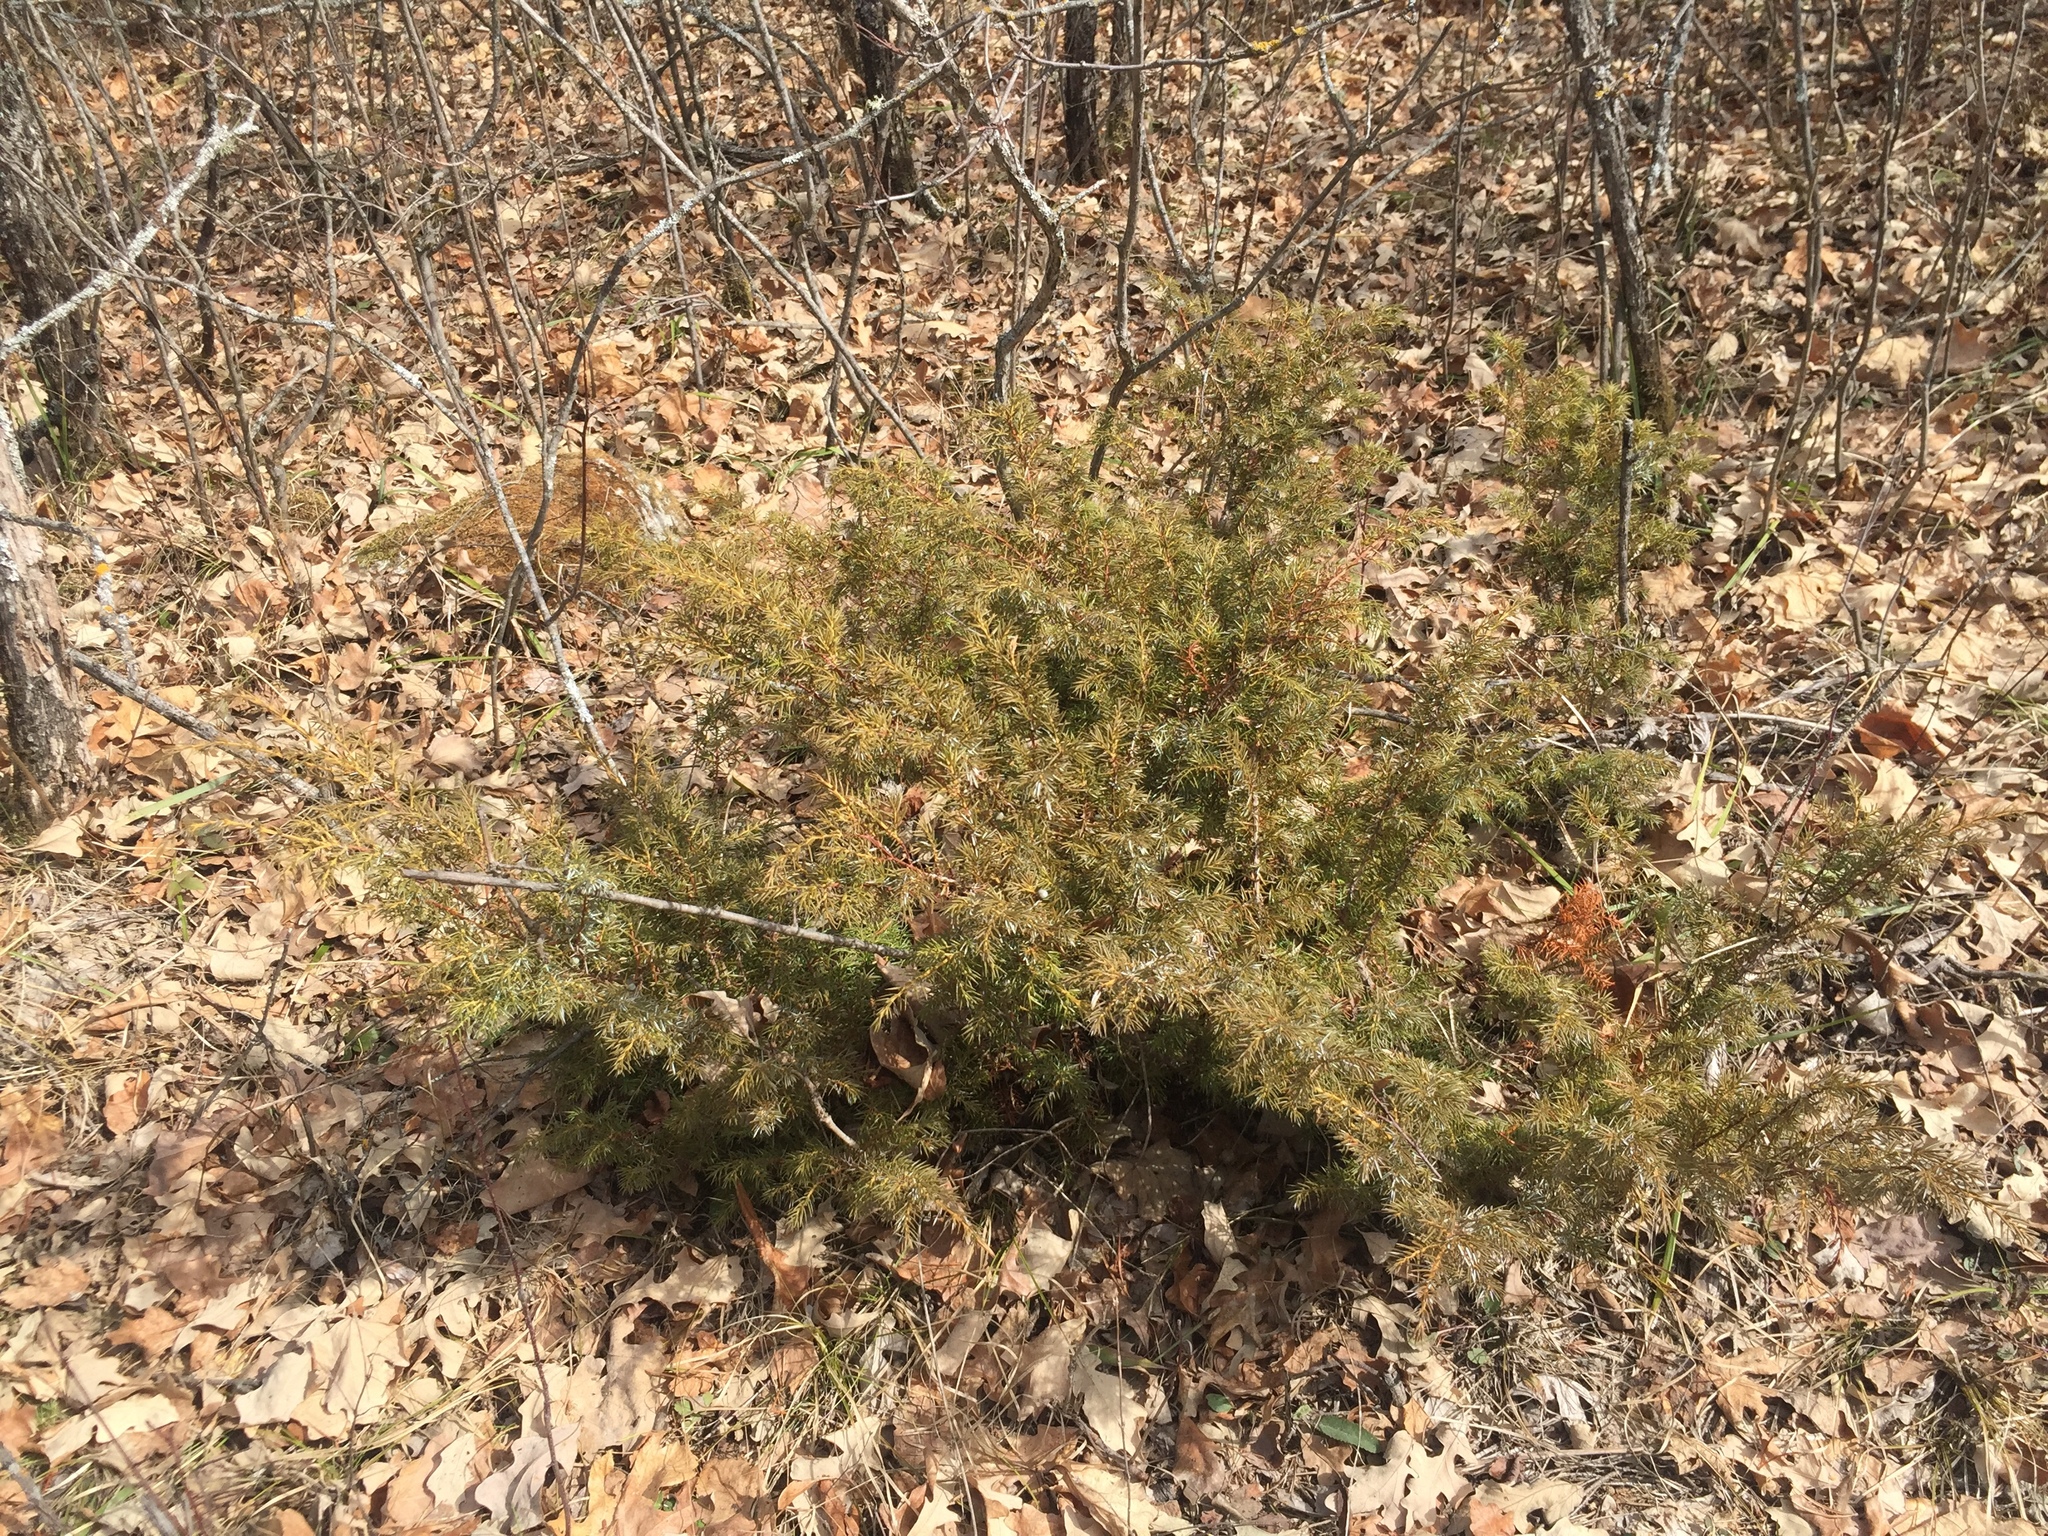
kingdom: Plantae
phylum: Tracheophyta
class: Pinopsida
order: Pinales
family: Cupressaceae
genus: Juniperus
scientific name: Juniperus communis
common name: Common juniper
